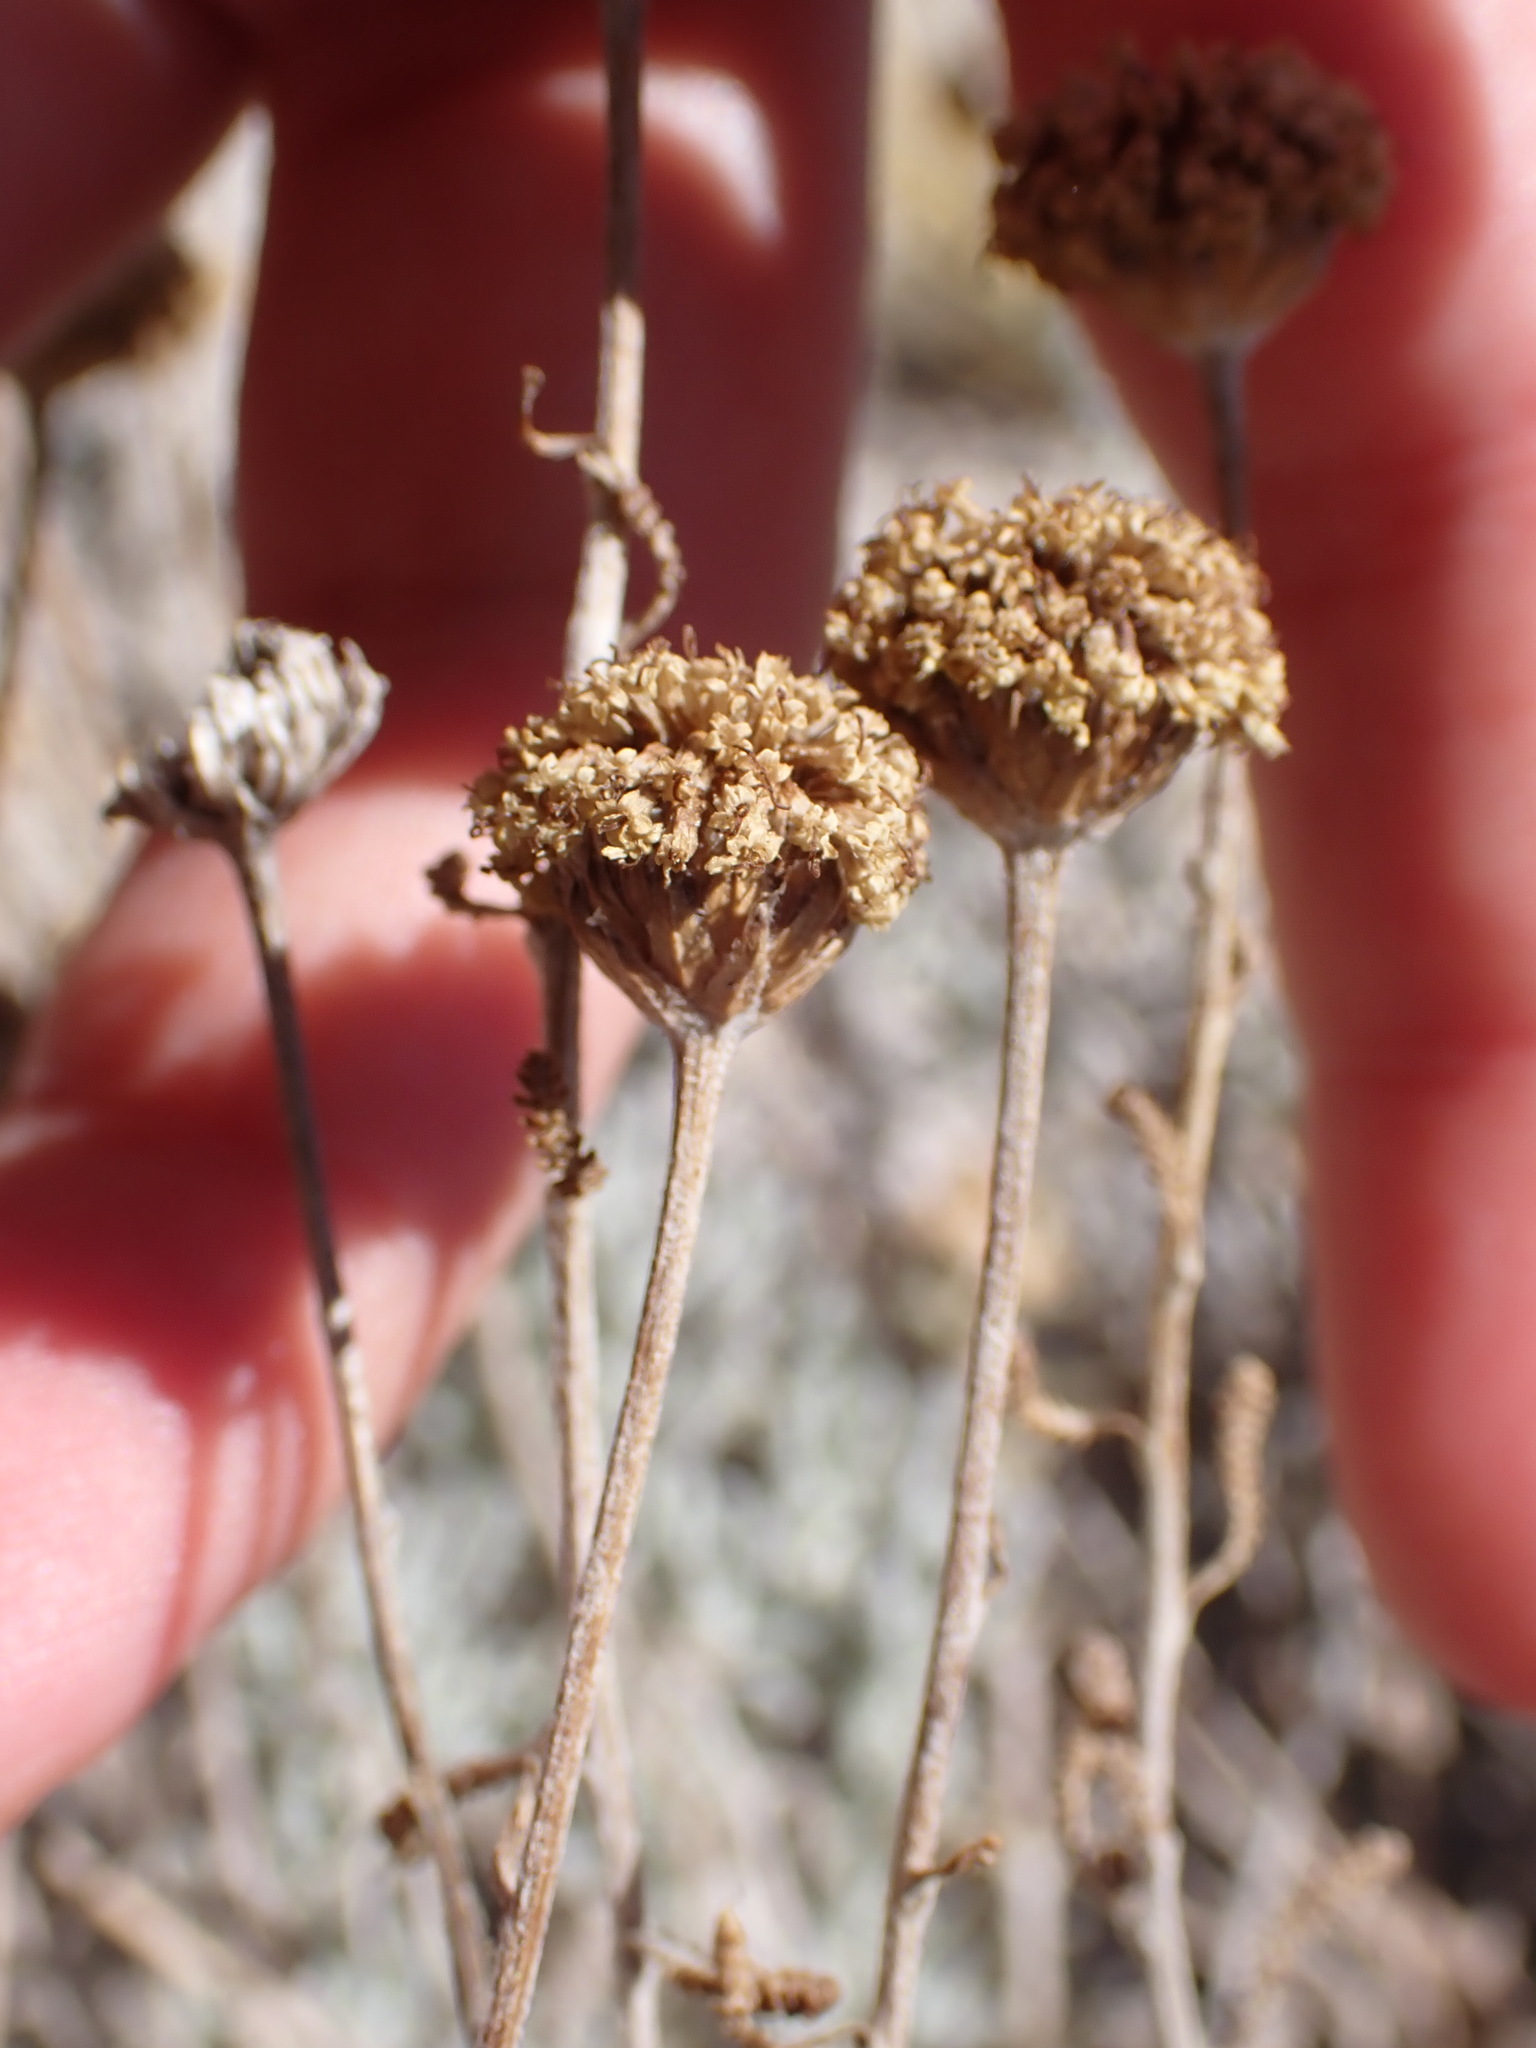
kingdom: Plantae
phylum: Tracheophyta
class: Magnoliopsida
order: Asterales
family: Asteraceae
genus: Santolina
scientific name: Santolina chamaecyparissus
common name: Lavender-cotton
